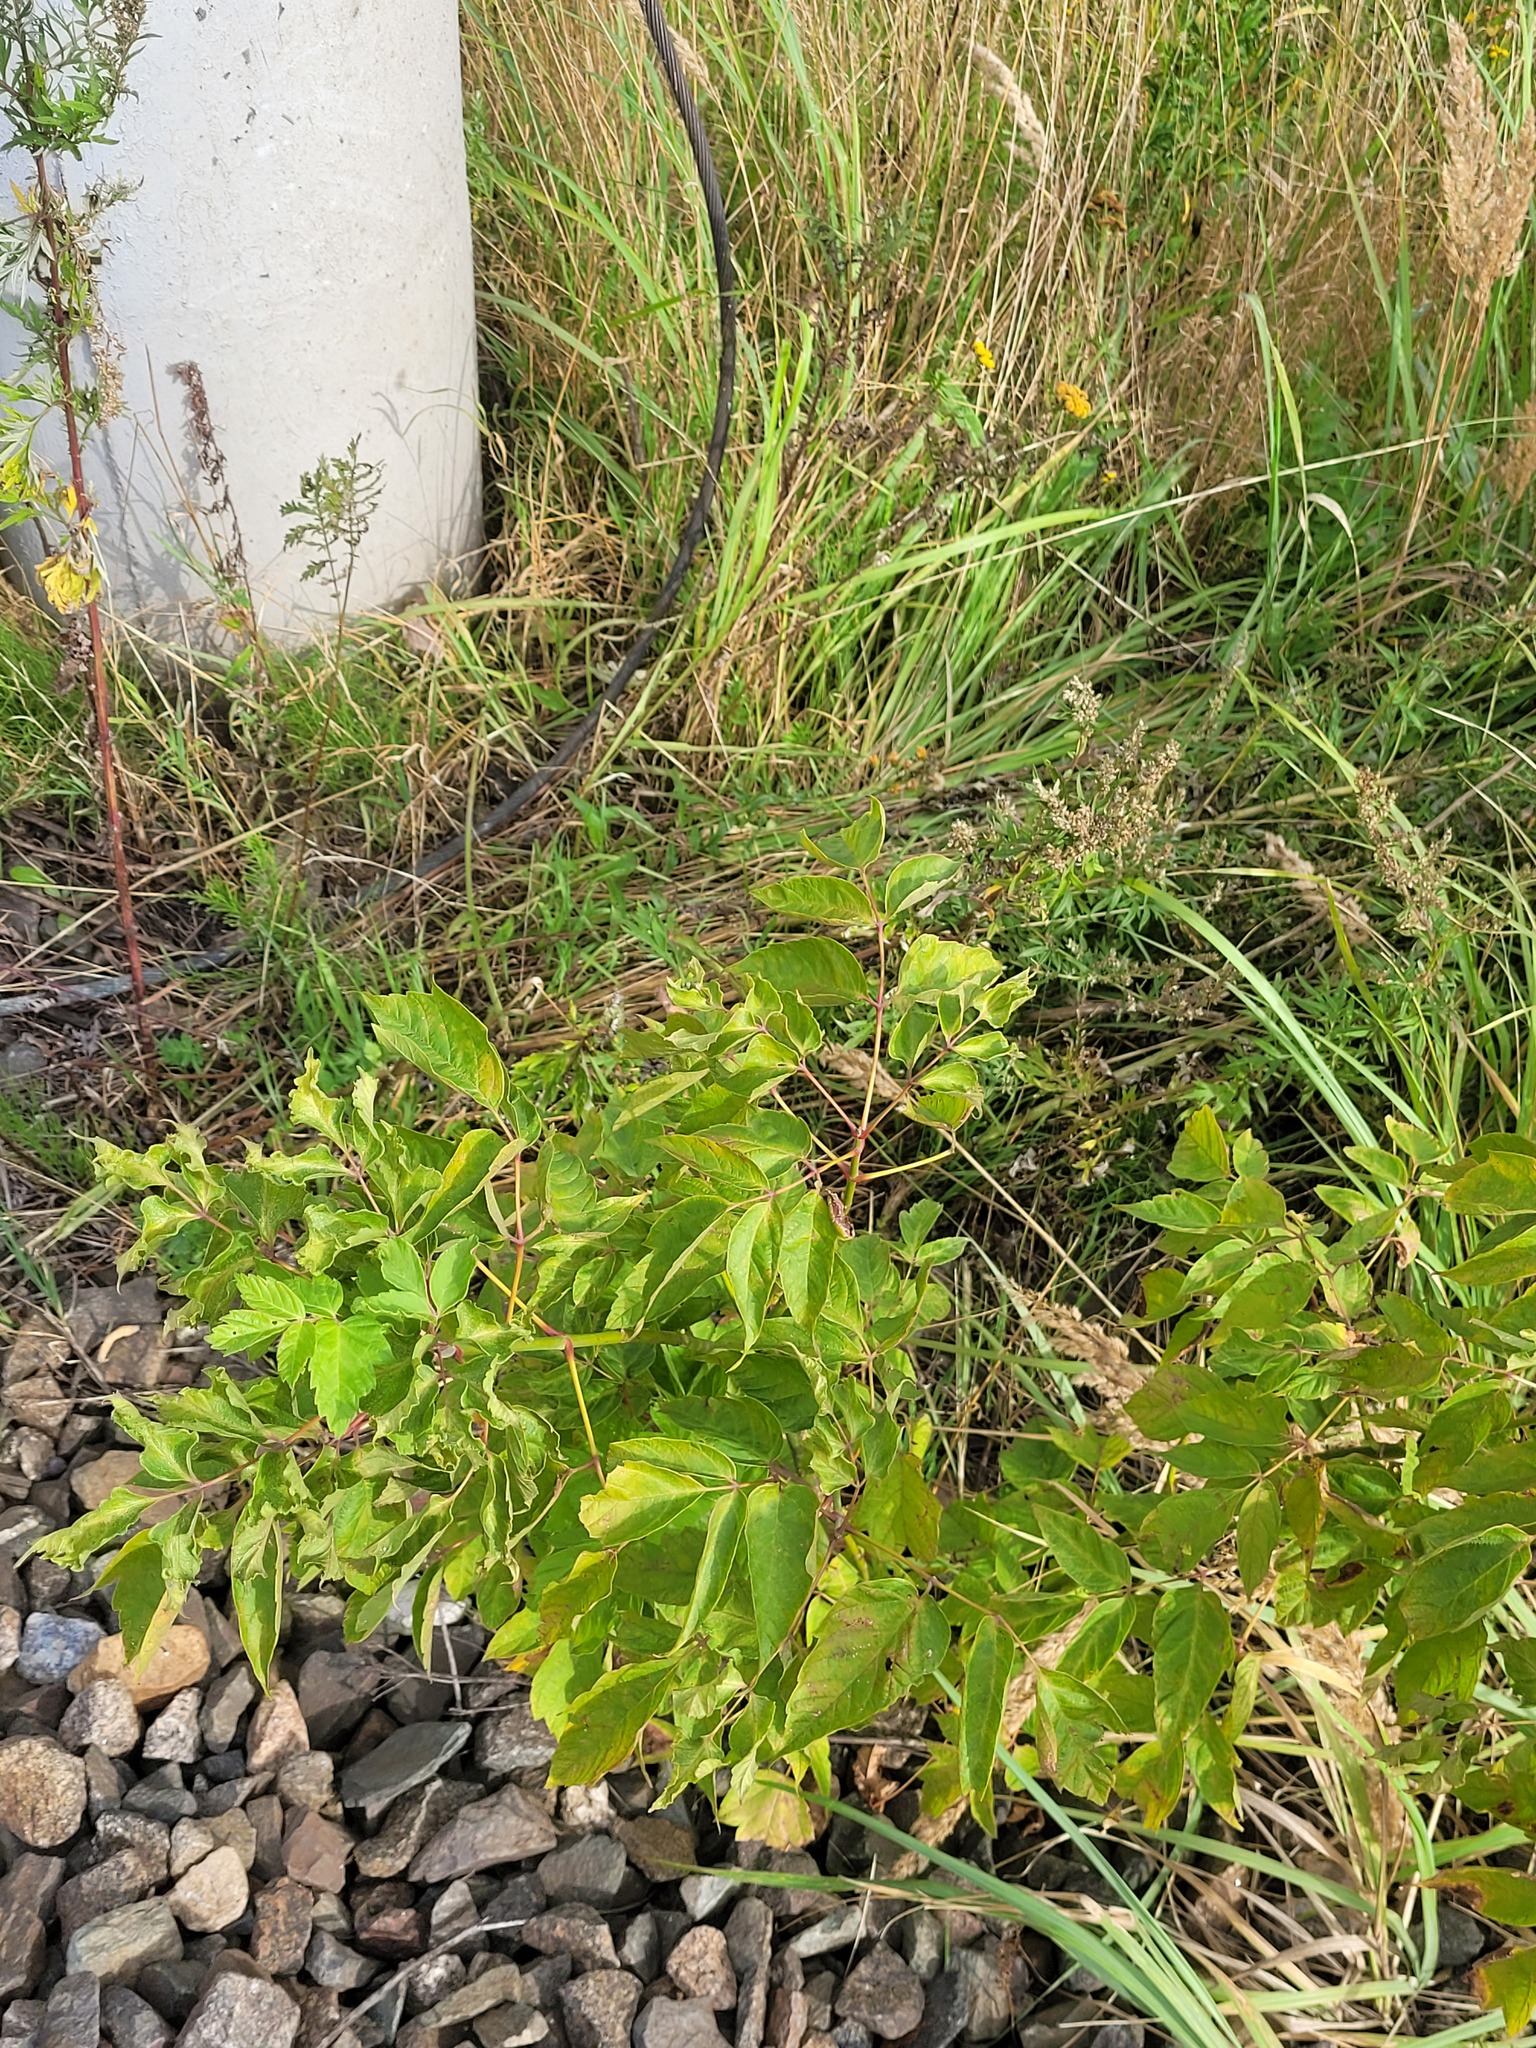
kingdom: Plantae
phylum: Tracheophyta
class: Magnoliopsida
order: Sapindales
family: Sapindaceae
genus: Acer
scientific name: Acer negundo
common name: Ashleaf maple
